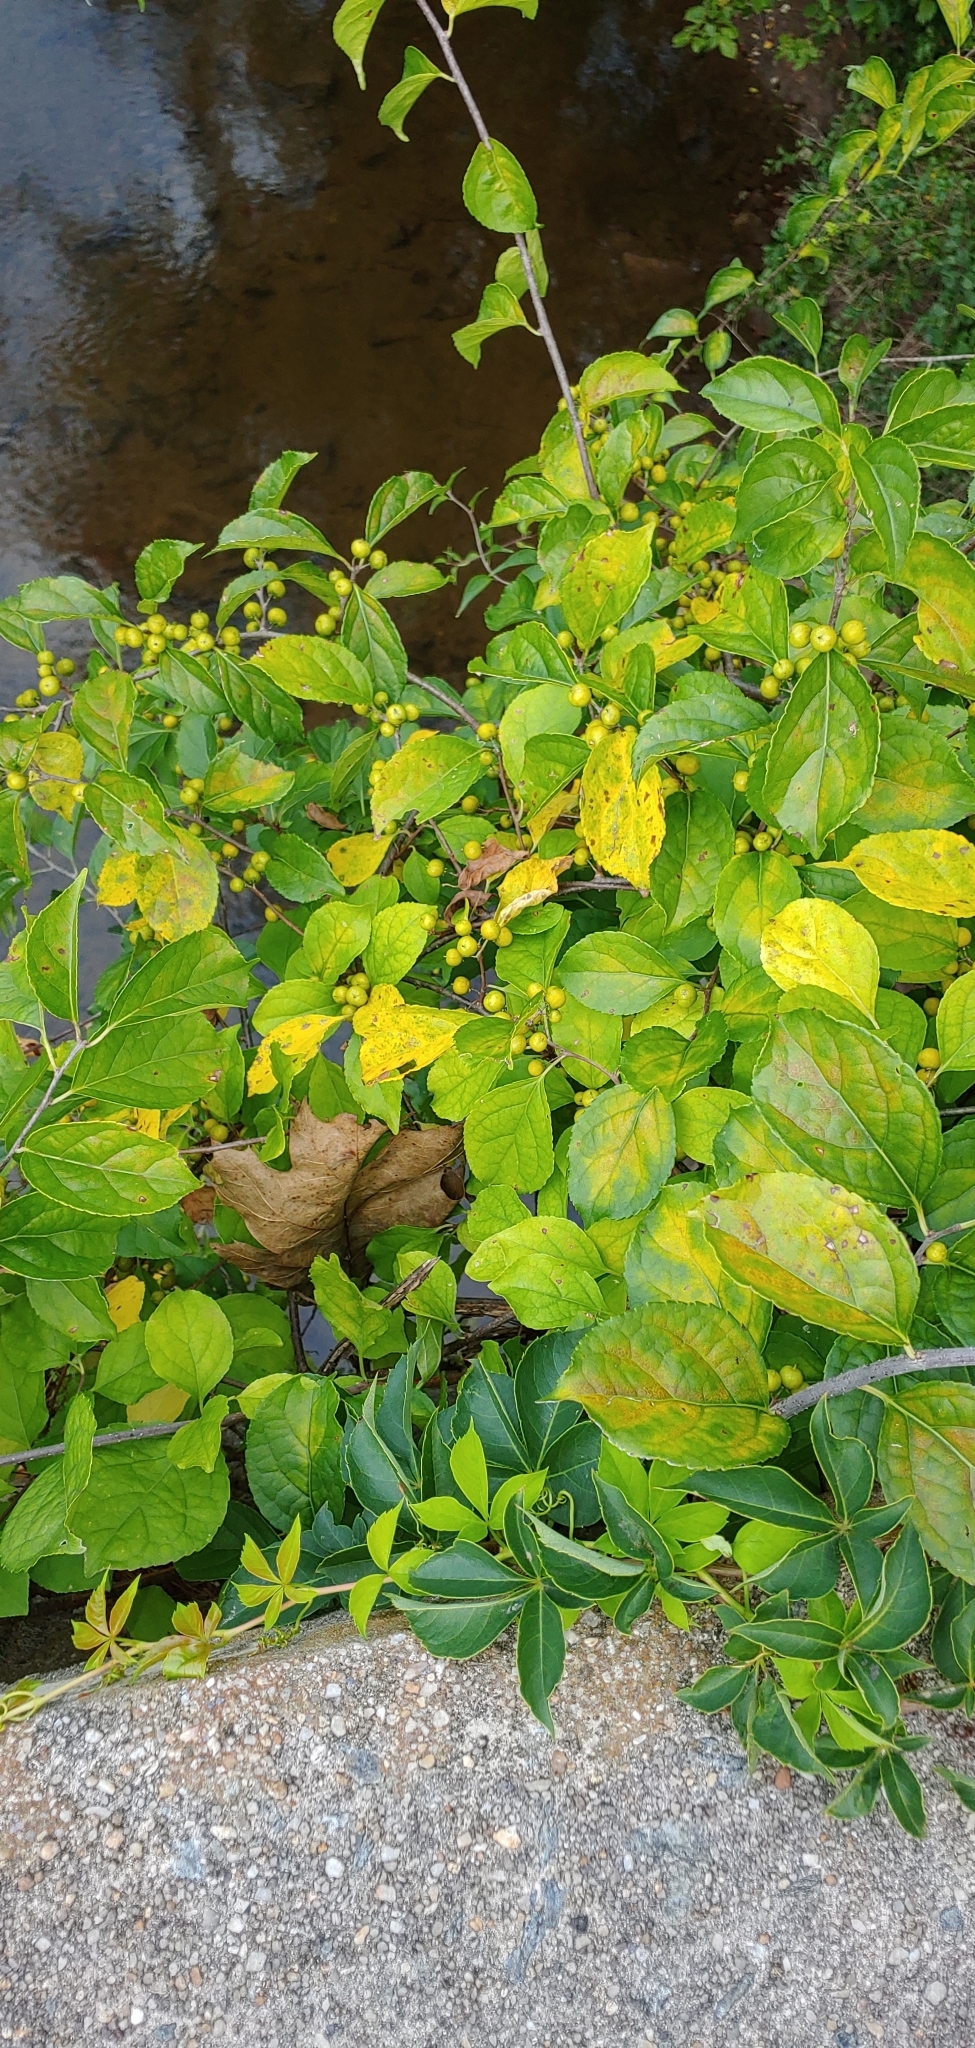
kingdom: Plantae
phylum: Tracheophyta
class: Magnoliopsida
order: Celastrales
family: Celastraceae
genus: Celastrus
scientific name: Celastrus orbiculatus
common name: Oriental bittersweet
